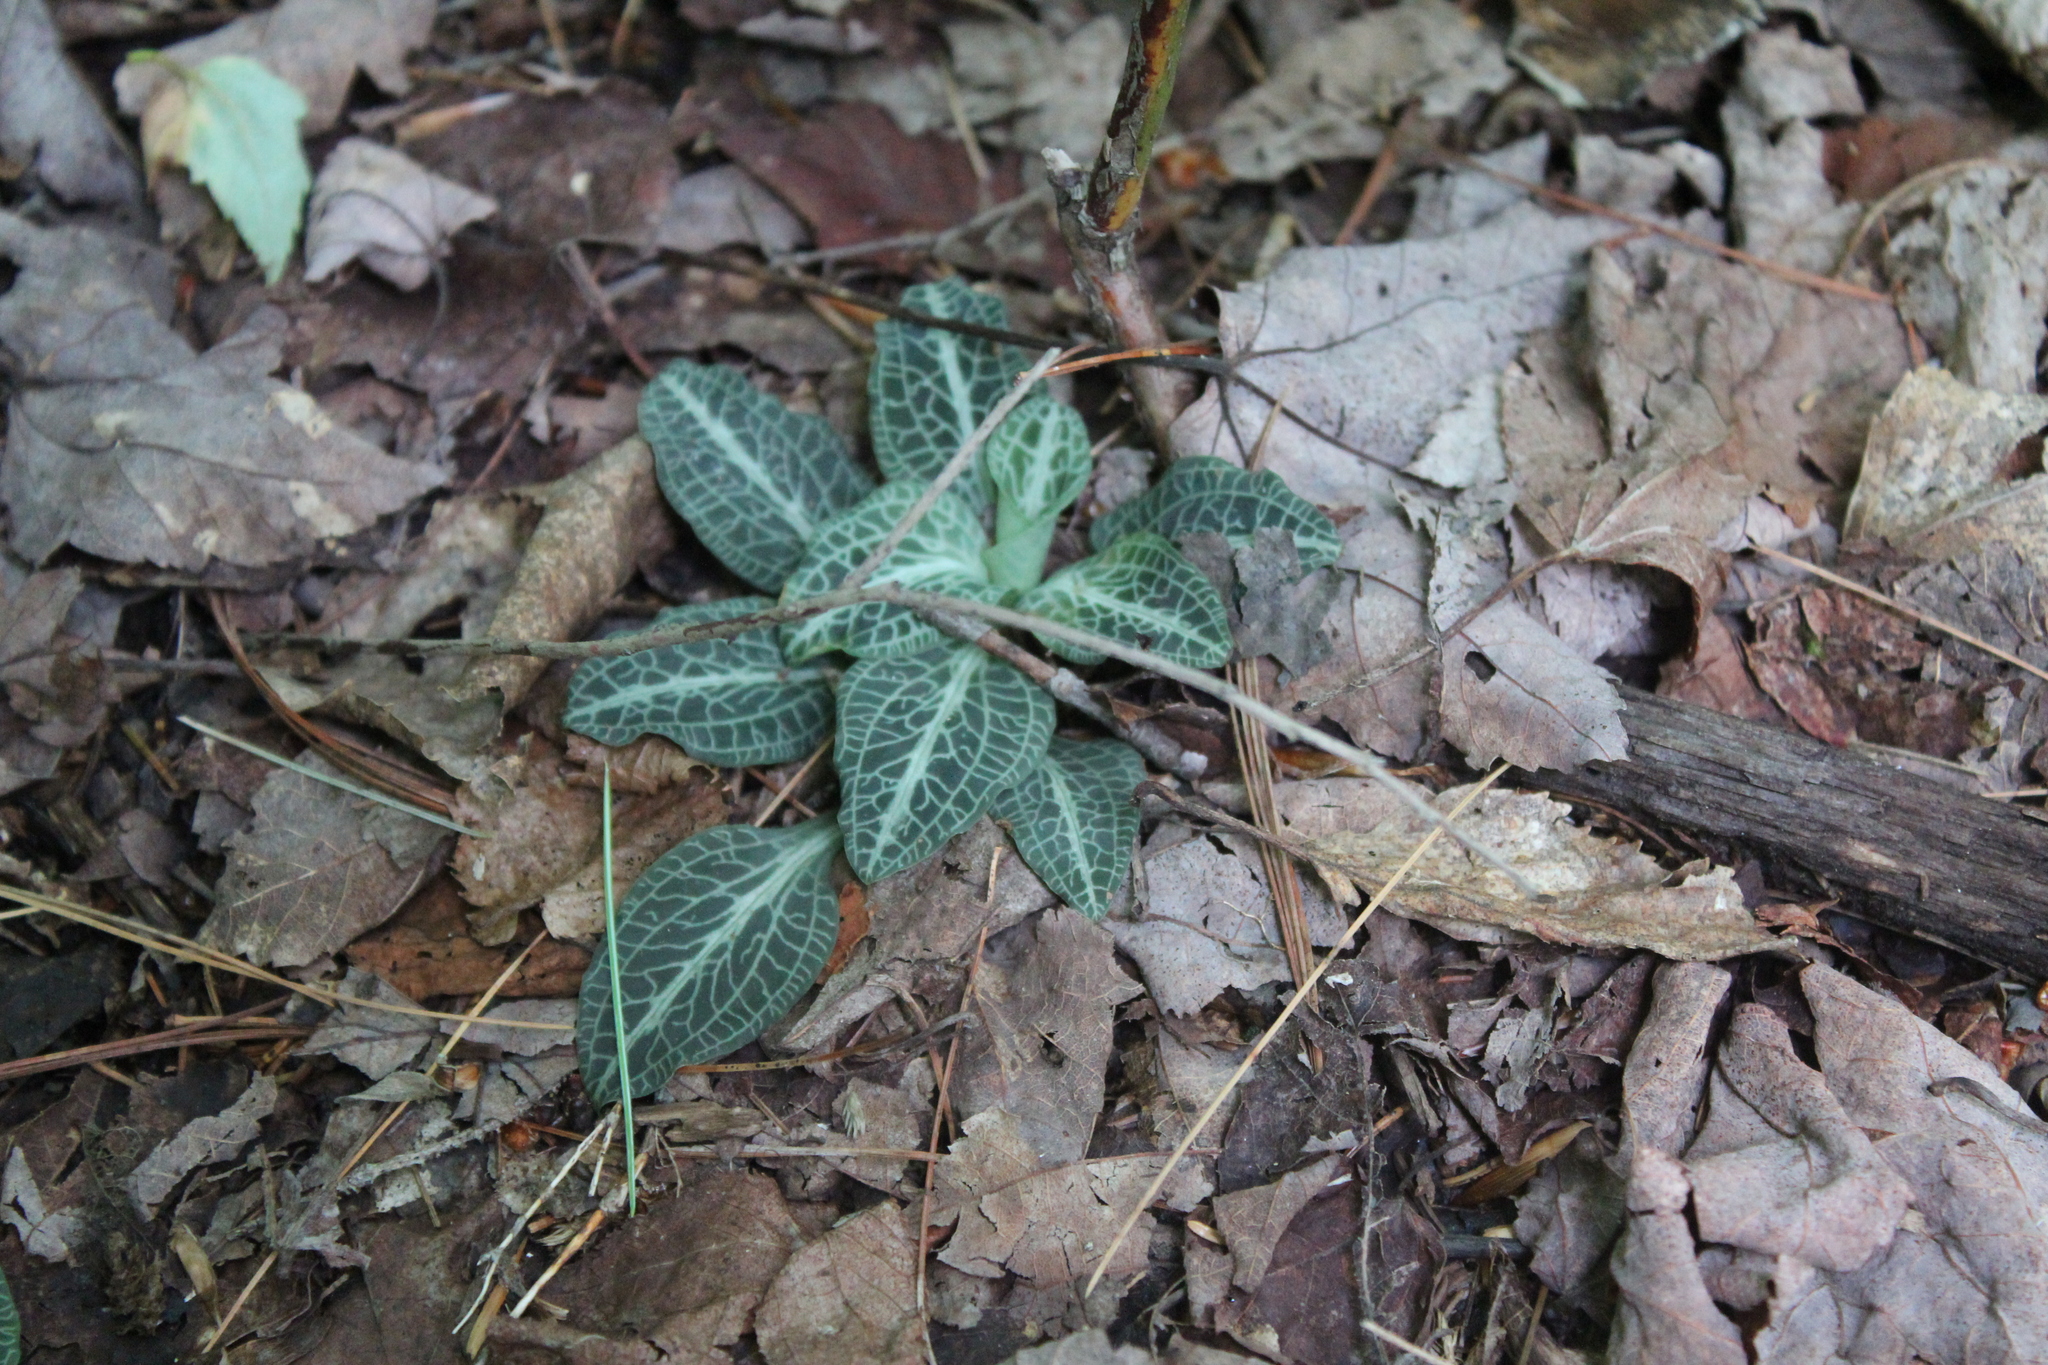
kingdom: Plantae
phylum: Tracheophyta
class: Liliopsida
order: Asparagales
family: Orchidaceae
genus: Goodyera
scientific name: Goodyera pubescens
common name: Downy rattlesnake-plantain
